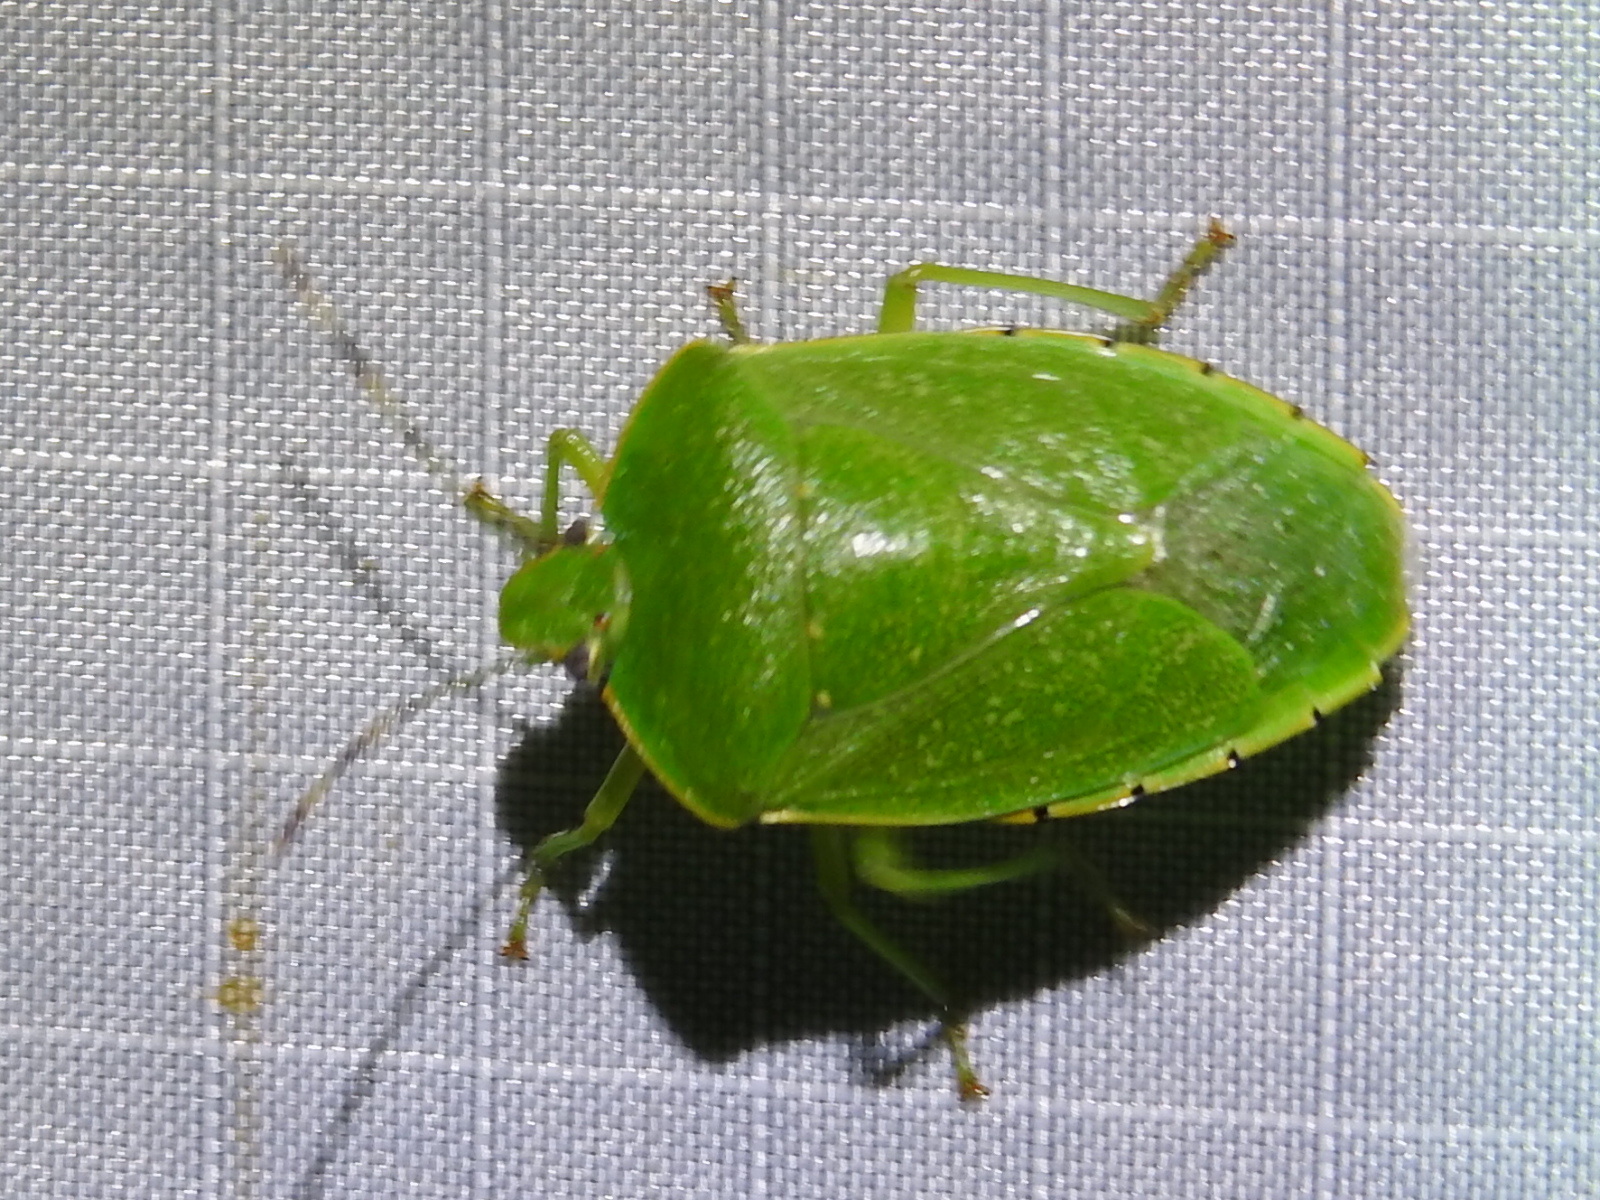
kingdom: Animalia
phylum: Arthropoda
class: Insecta
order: Hemiptera
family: Pentatomidae
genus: Chinavia
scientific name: Chinavia hilaris
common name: Green stink bug
